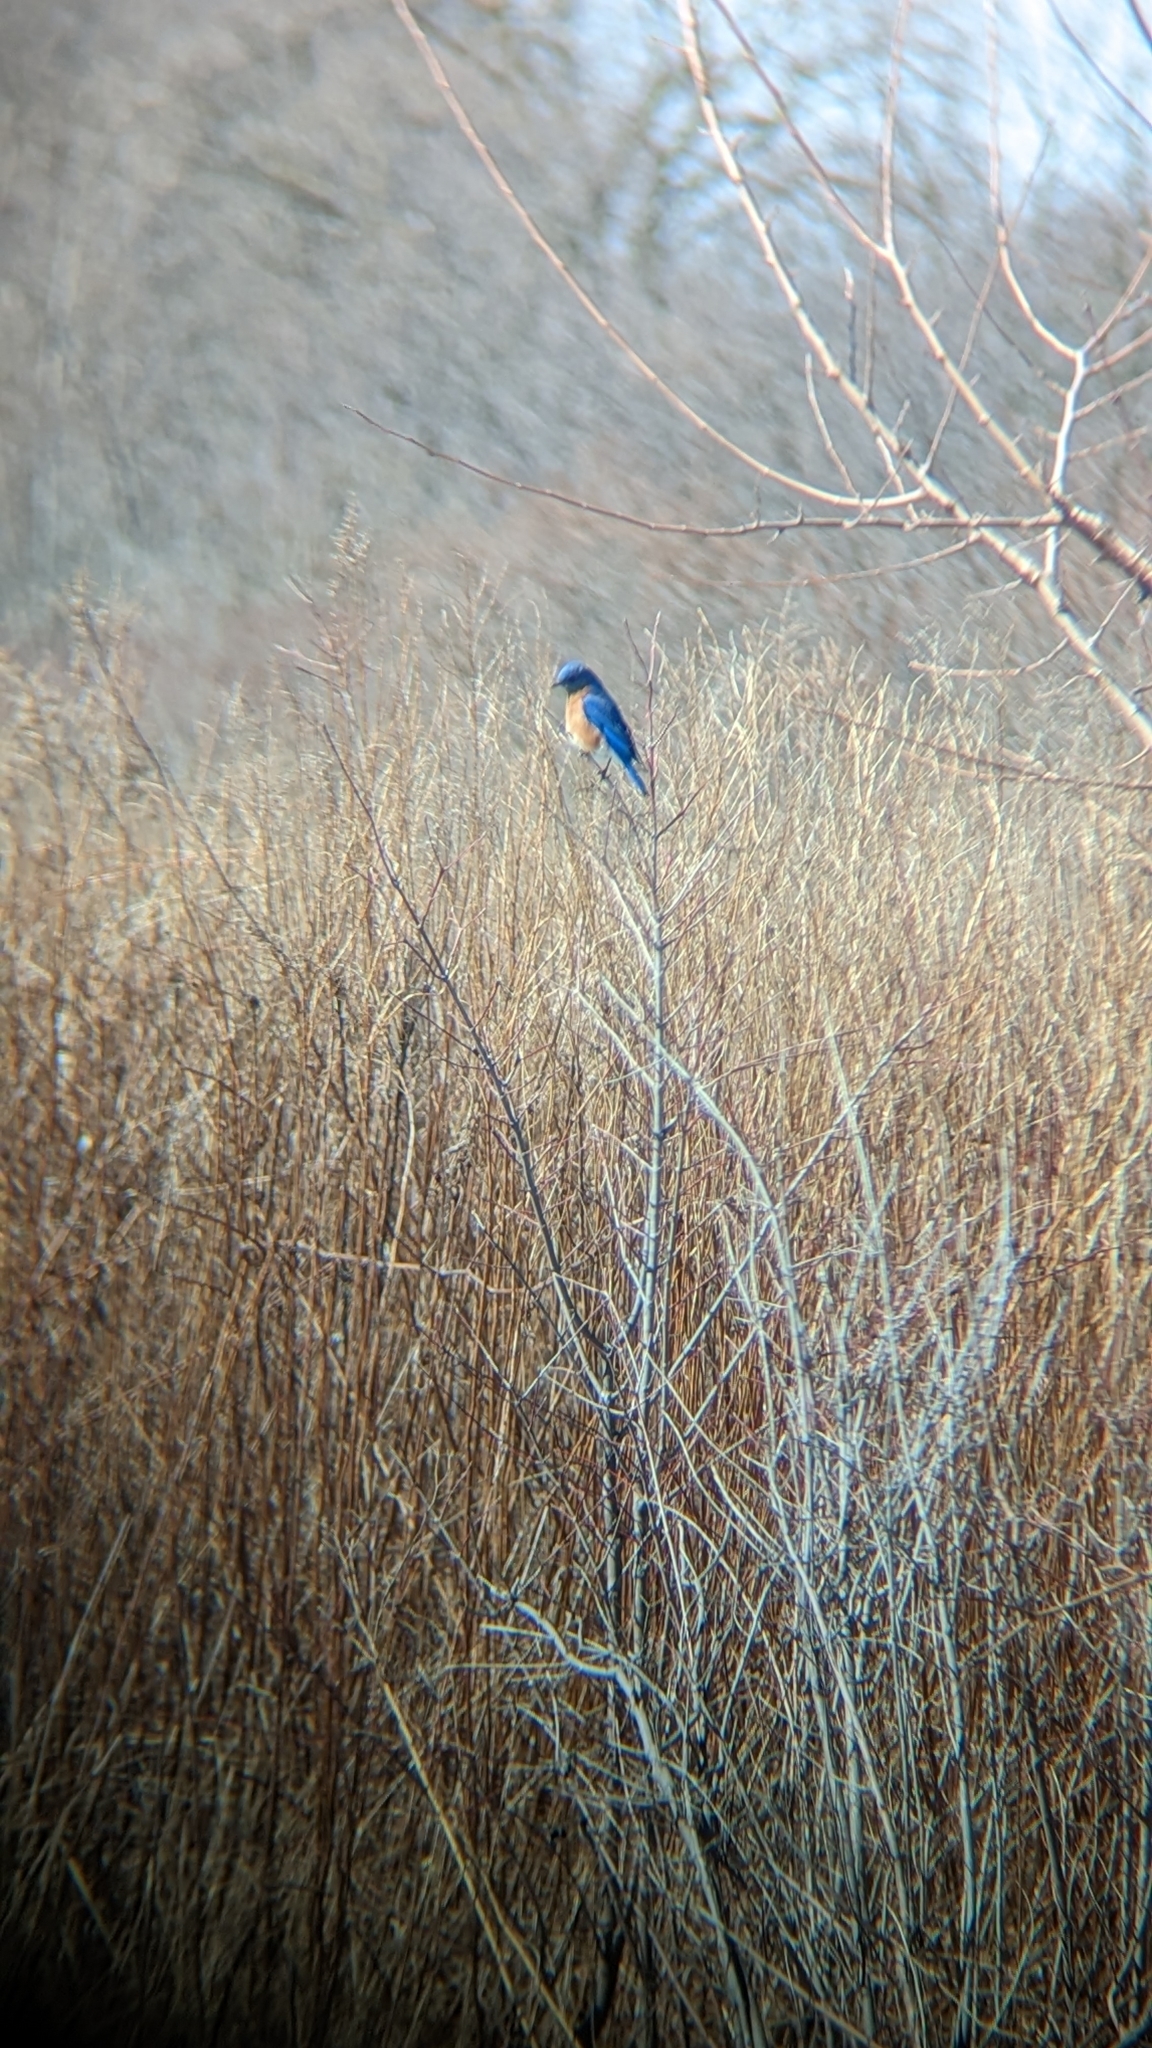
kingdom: Animalia
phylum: Chordata
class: Aves
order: Passeriformes
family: Turdidae
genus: Sialia
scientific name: Sialia sialis
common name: Eastern bluebird
